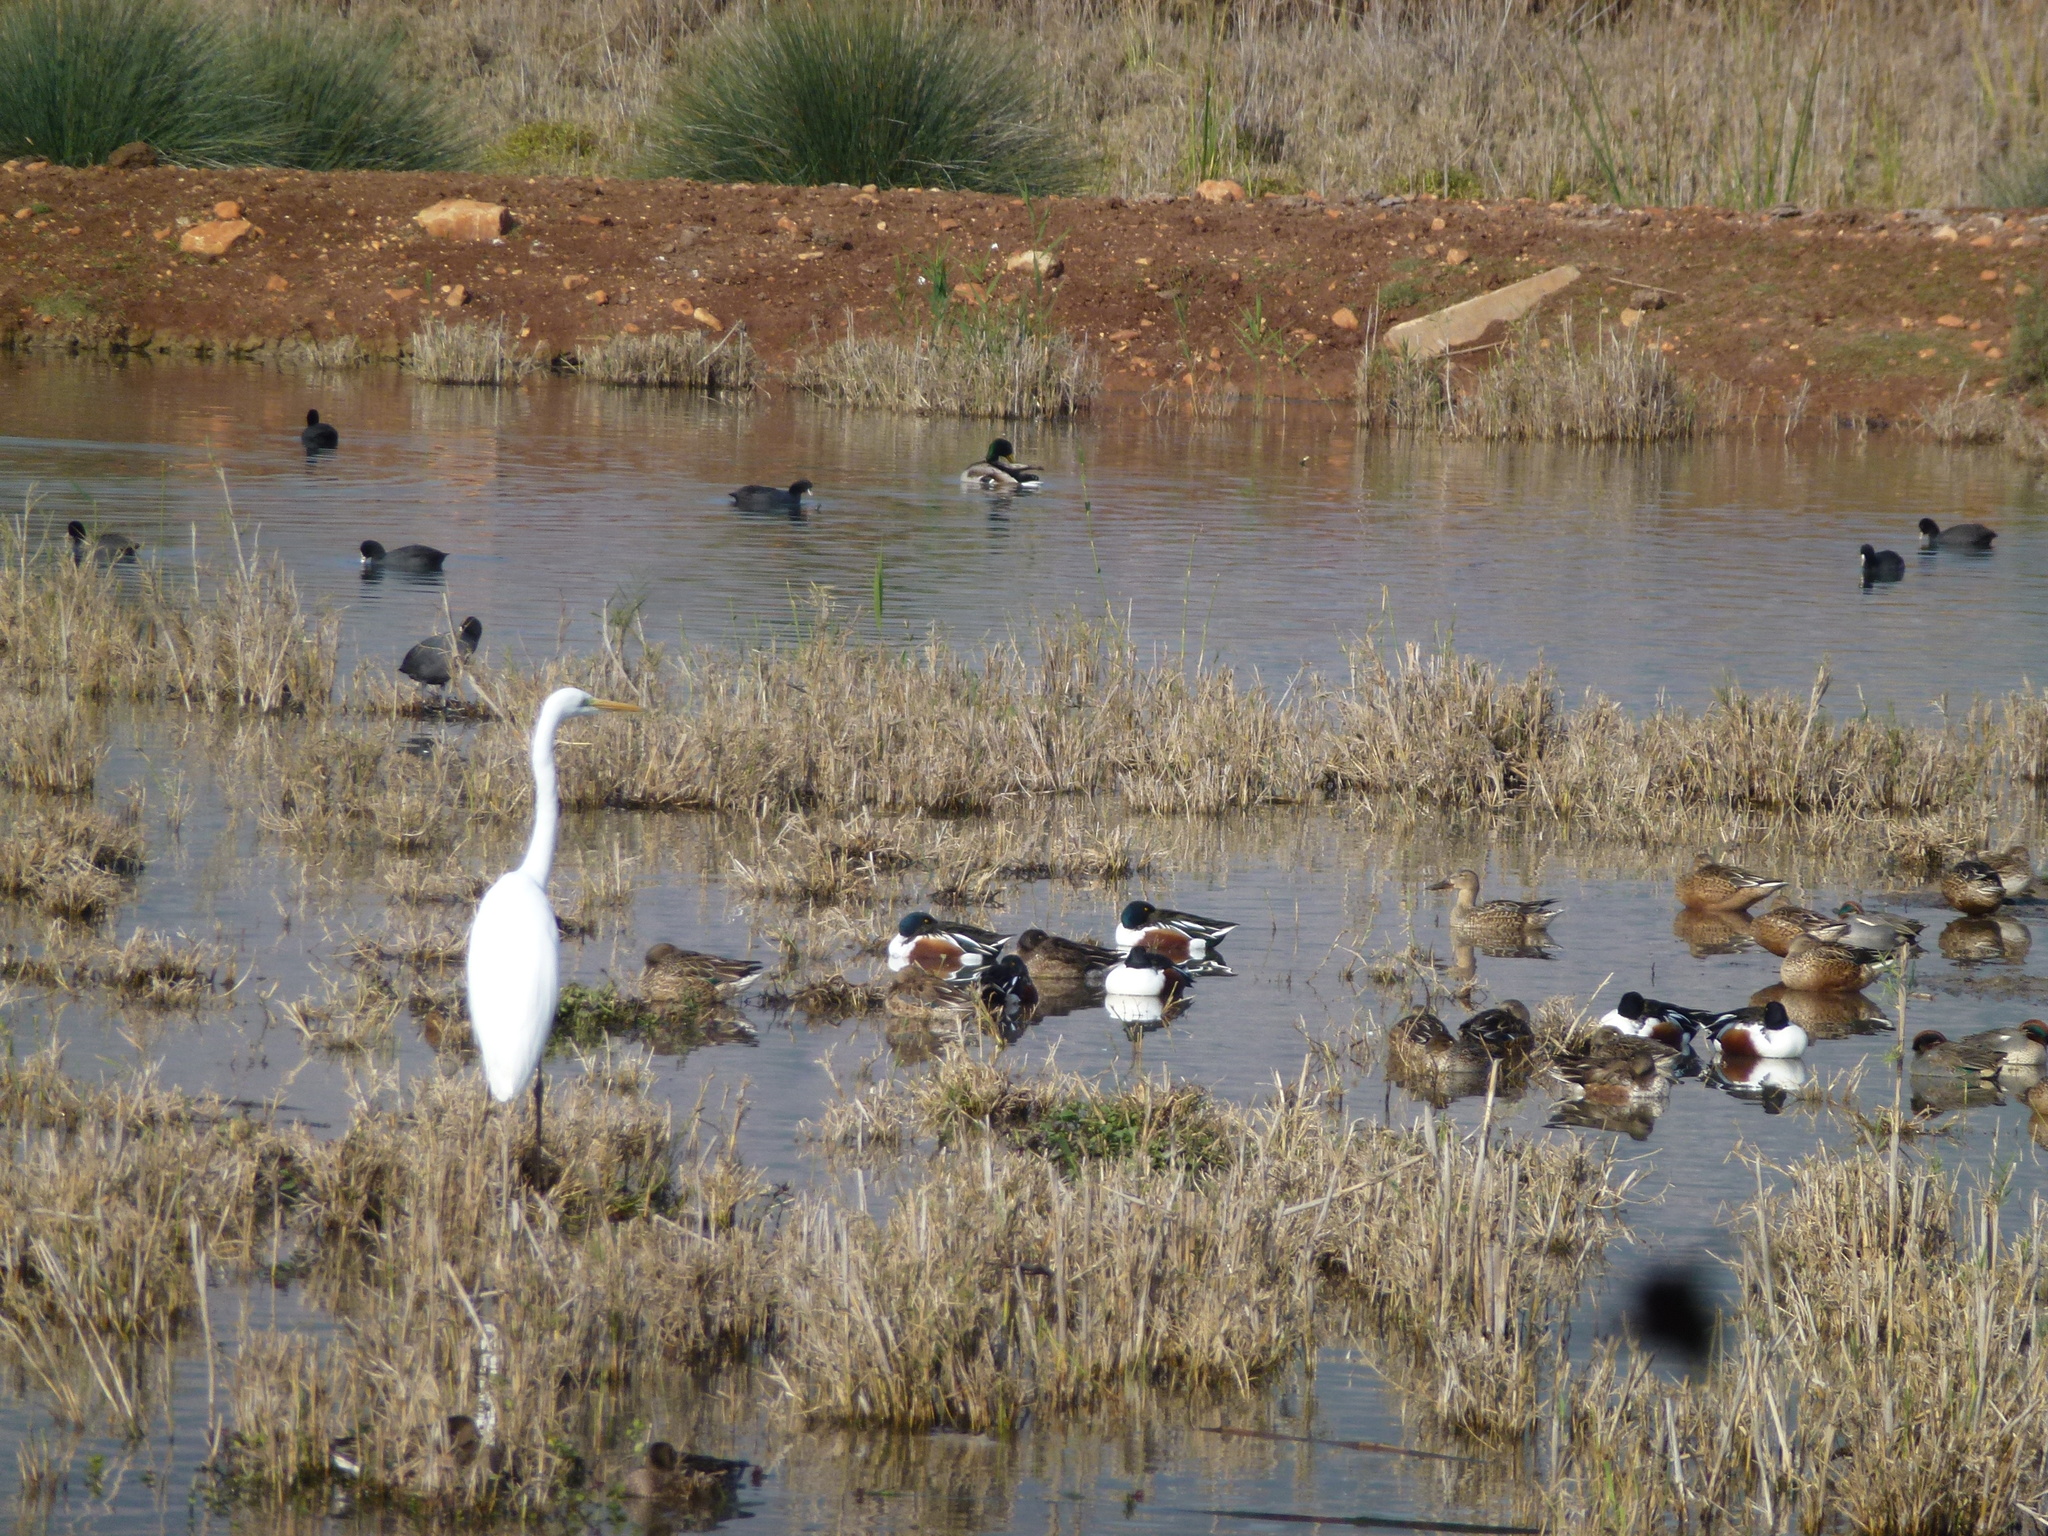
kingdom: Animalia
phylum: Chordata
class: Aves
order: Anseriformes
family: Anatidae
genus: Anas
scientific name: Anas crecca
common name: Eurasian teal
